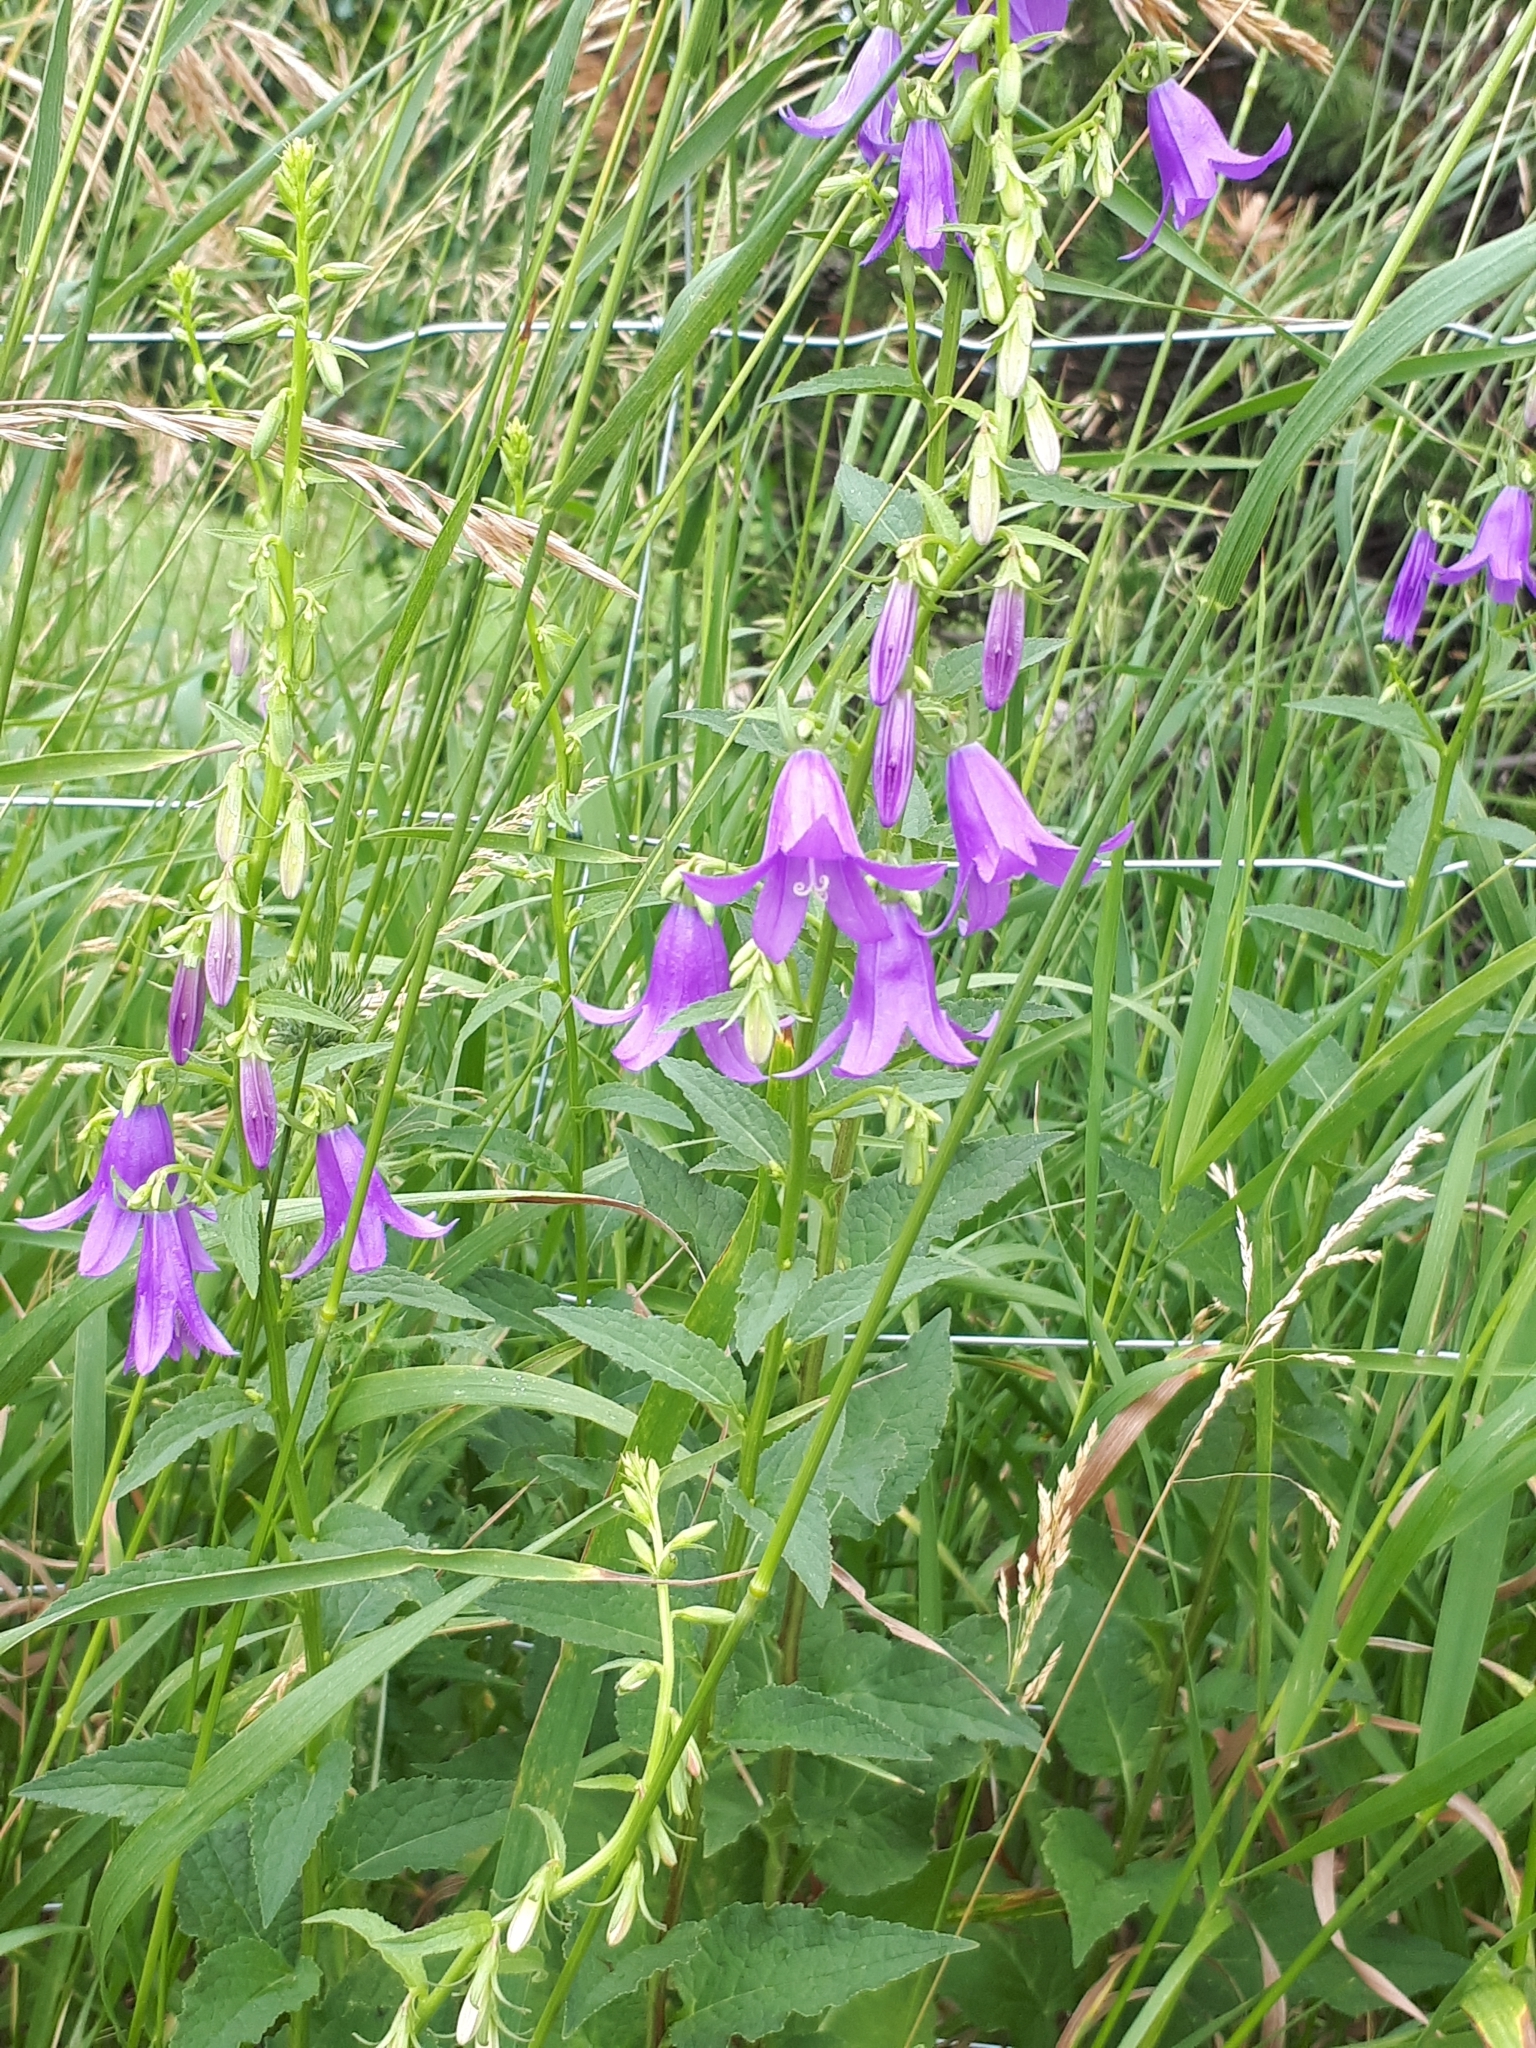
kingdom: Plantae
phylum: Tracheophyta
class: Magnoliopsida
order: Asterales
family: Campanulaceae
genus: Campanula
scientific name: Campanula rapunculoides
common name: Creeping bellflower
